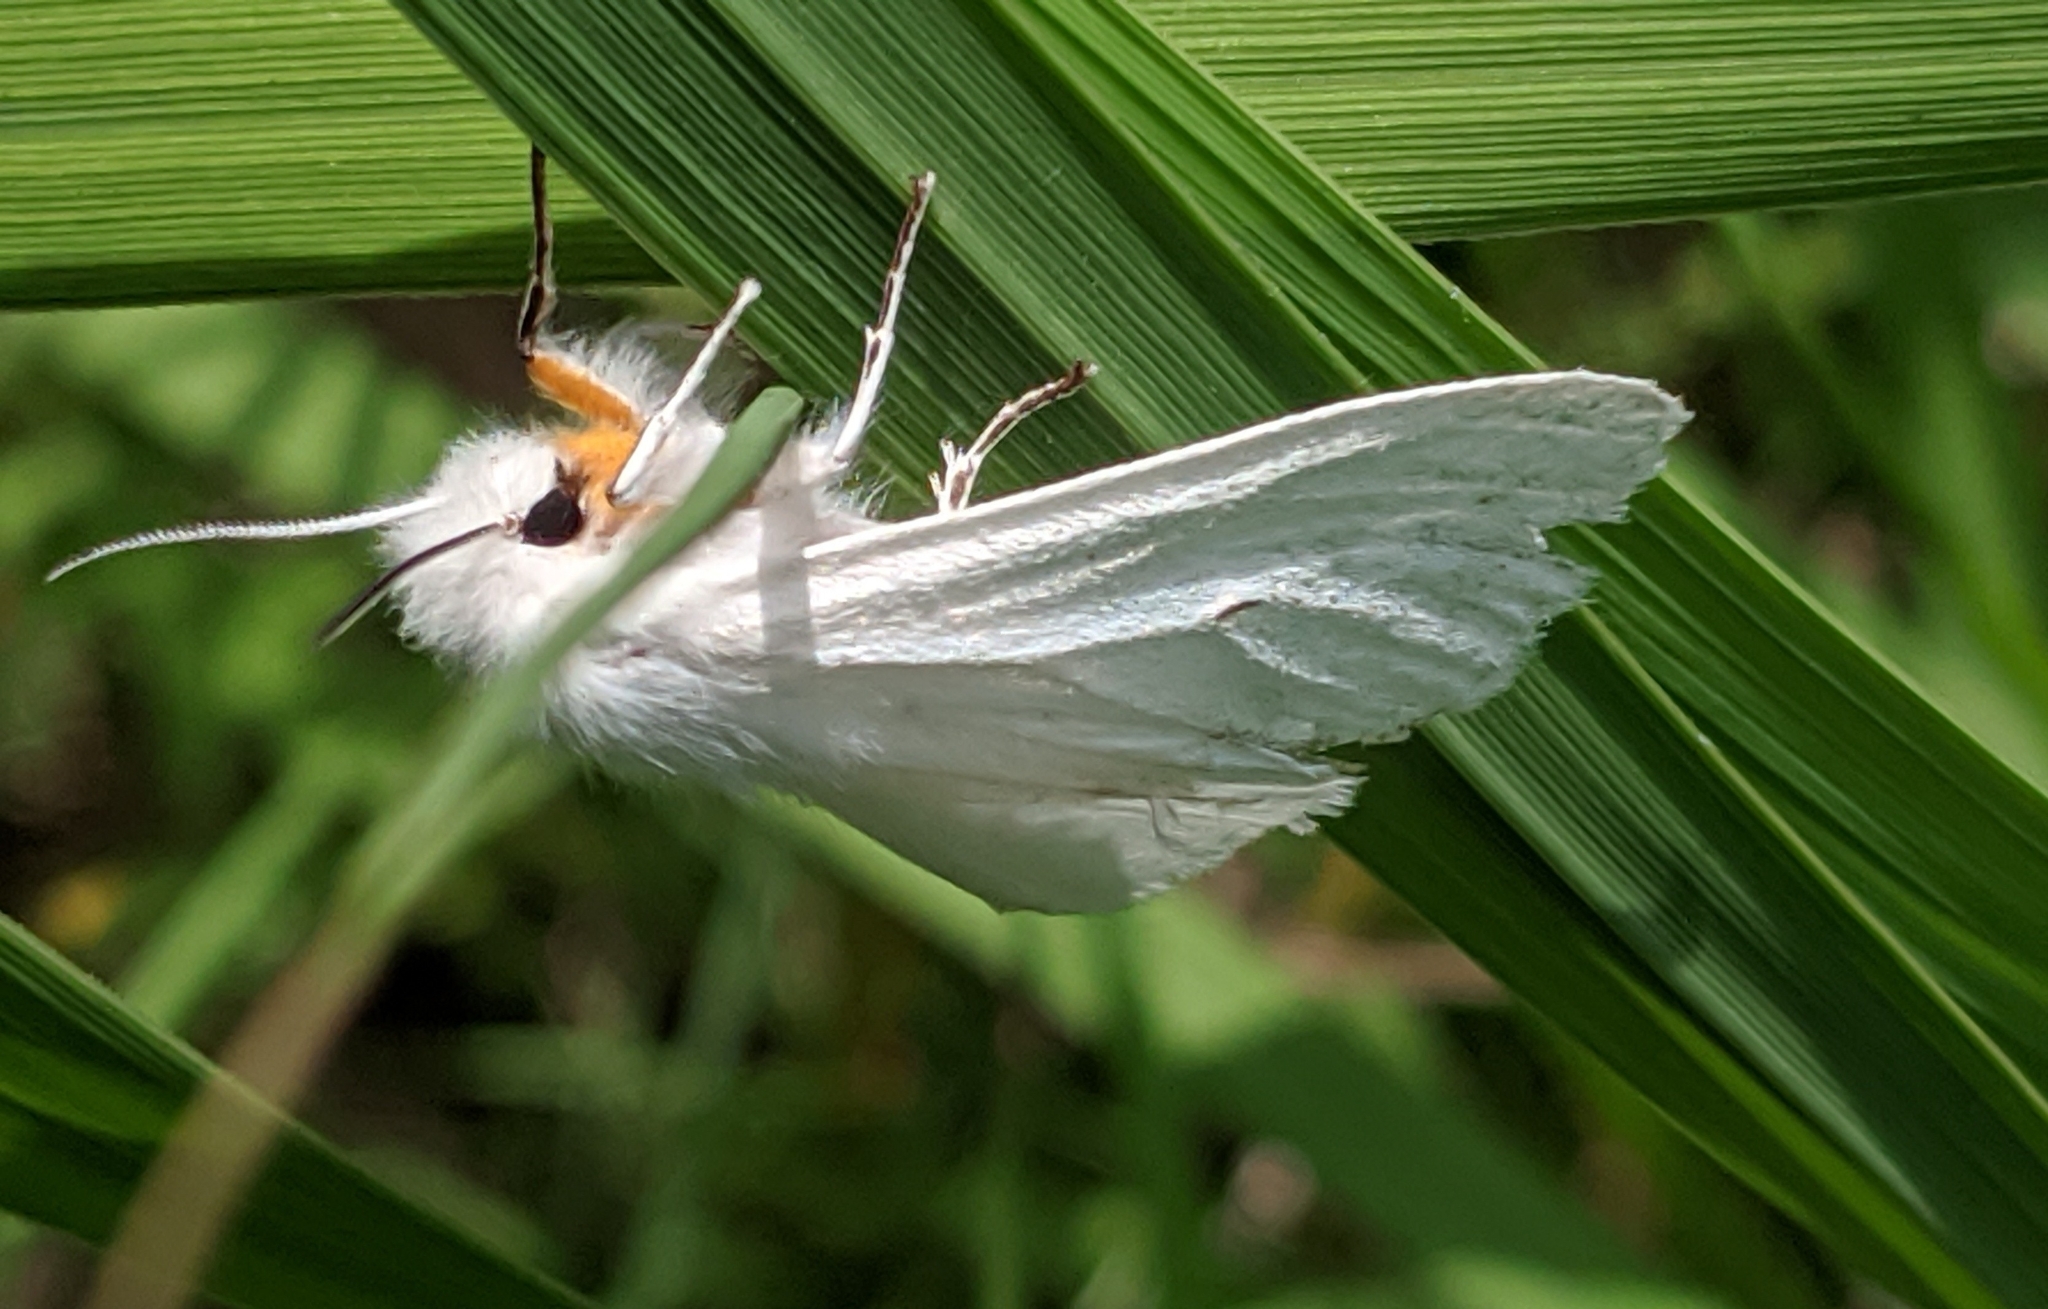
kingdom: Animalia
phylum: Arthropoda
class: Insecta
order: Lepidoptera
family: Erebidae
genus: Spilosoma
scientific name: Spilosoma virginica
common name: Virginia tiger moth
